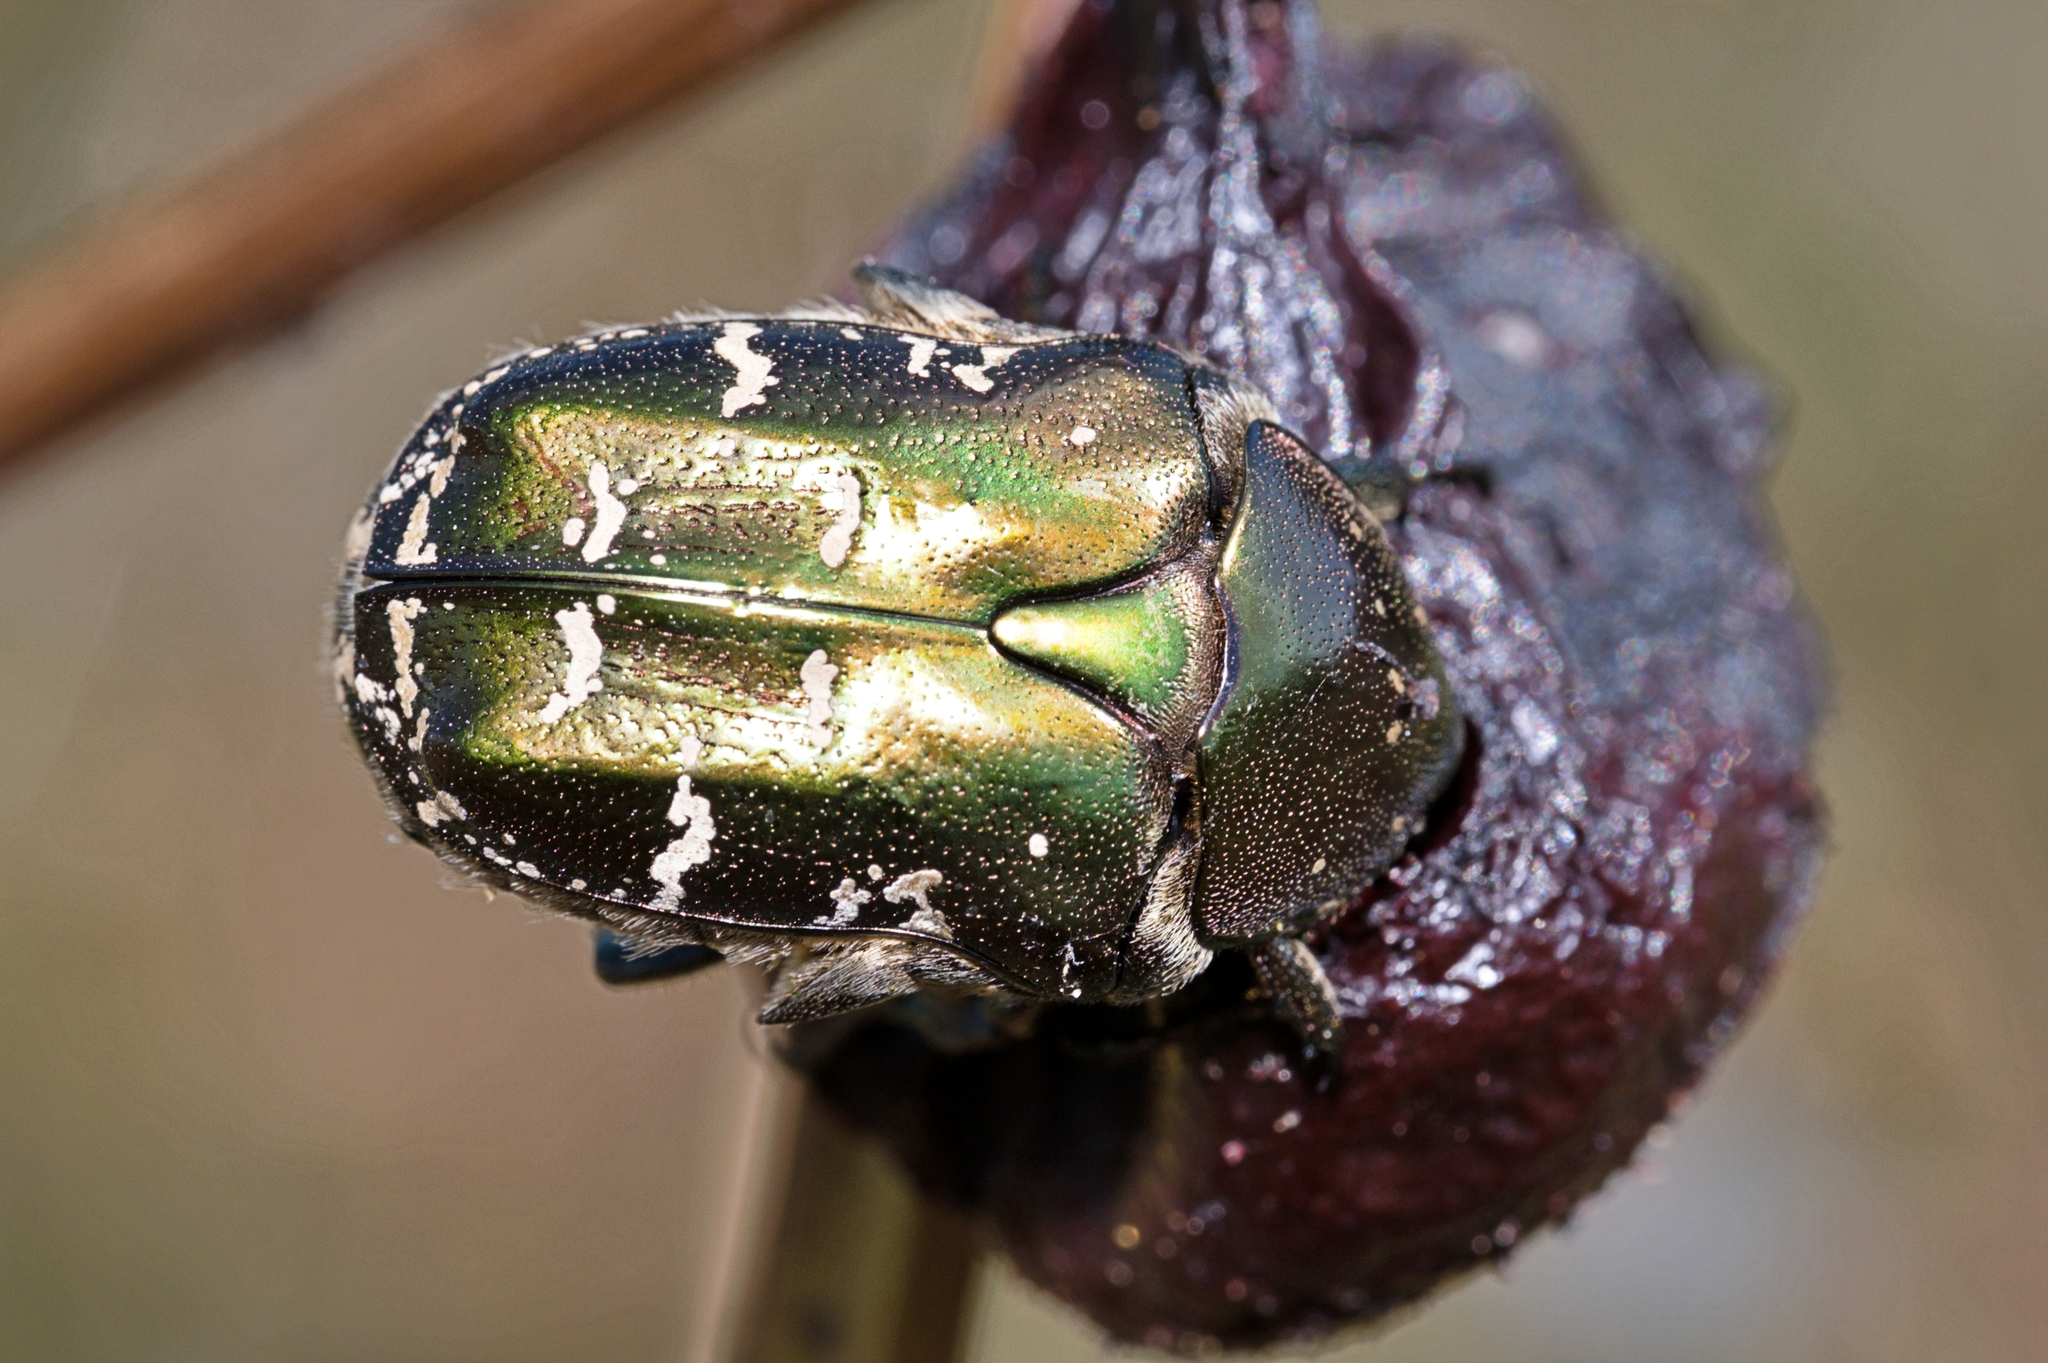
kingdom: Animalia
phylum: Arthropoda
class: Insecta
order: Coleoptera
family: Scarabaeidae
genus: Protaetia
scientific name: Protaetia cuprea
